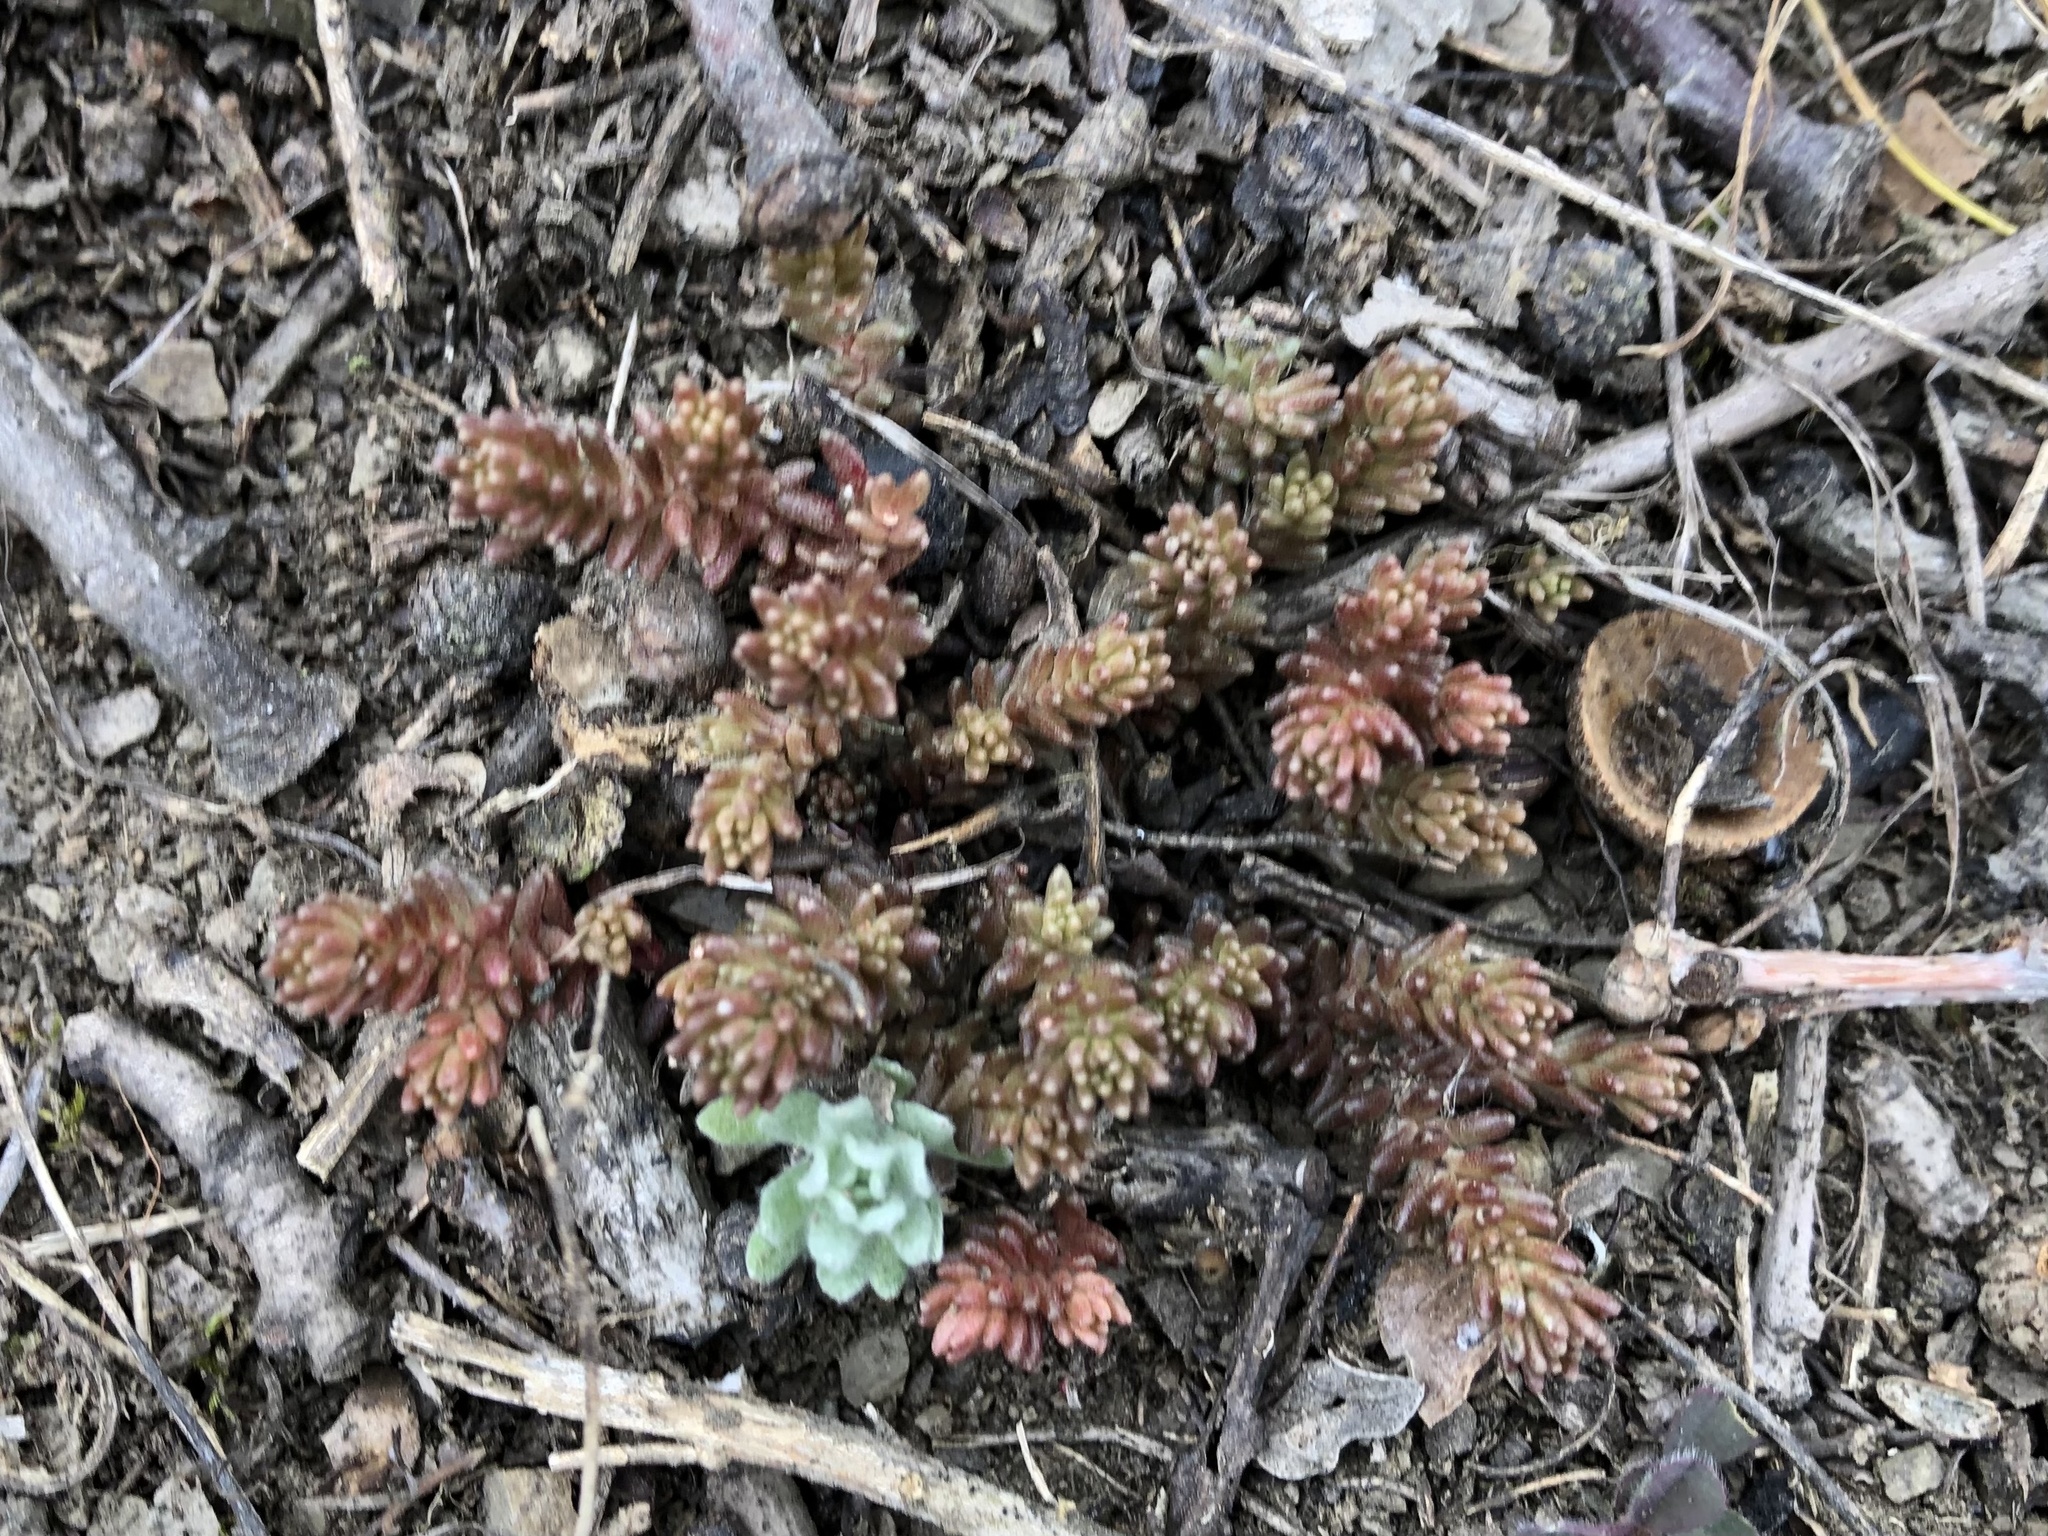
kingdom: Plantae
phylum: Tracheophyta
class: Magnoliopsida
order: Saxifragales
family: Crassulaceae
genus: Sedum
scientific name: Sedum sexangulare
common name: Tasteless stonecrop
